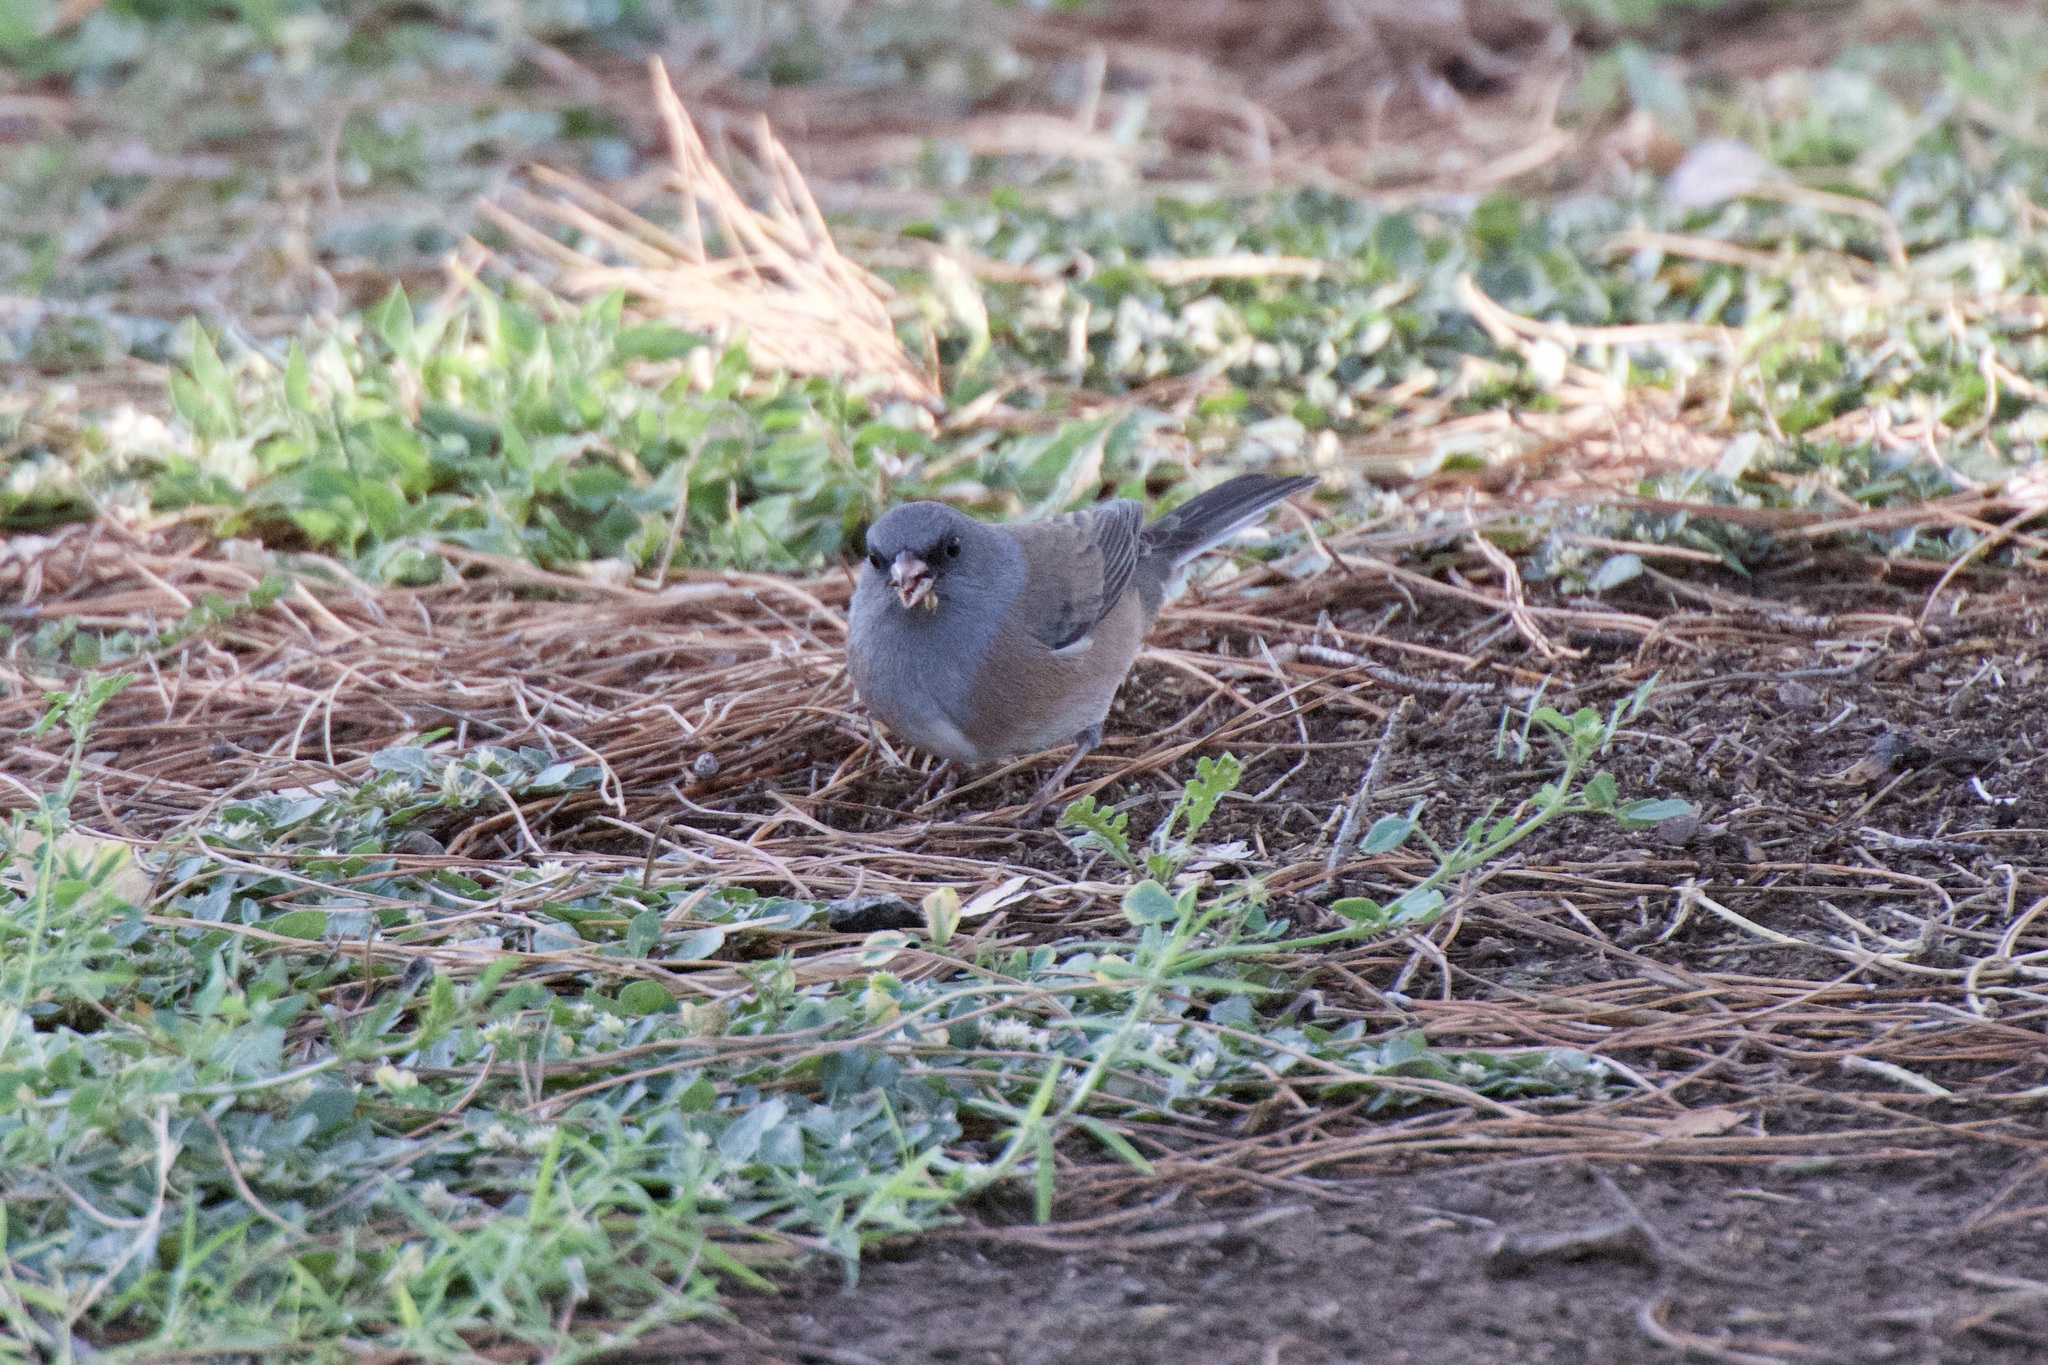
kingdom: Animalia
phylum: Chordata
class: Aves
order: Passeriformes
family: Passerellidae
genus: Junco
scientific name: Junco hyemalis
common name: Dark-eyed junco
